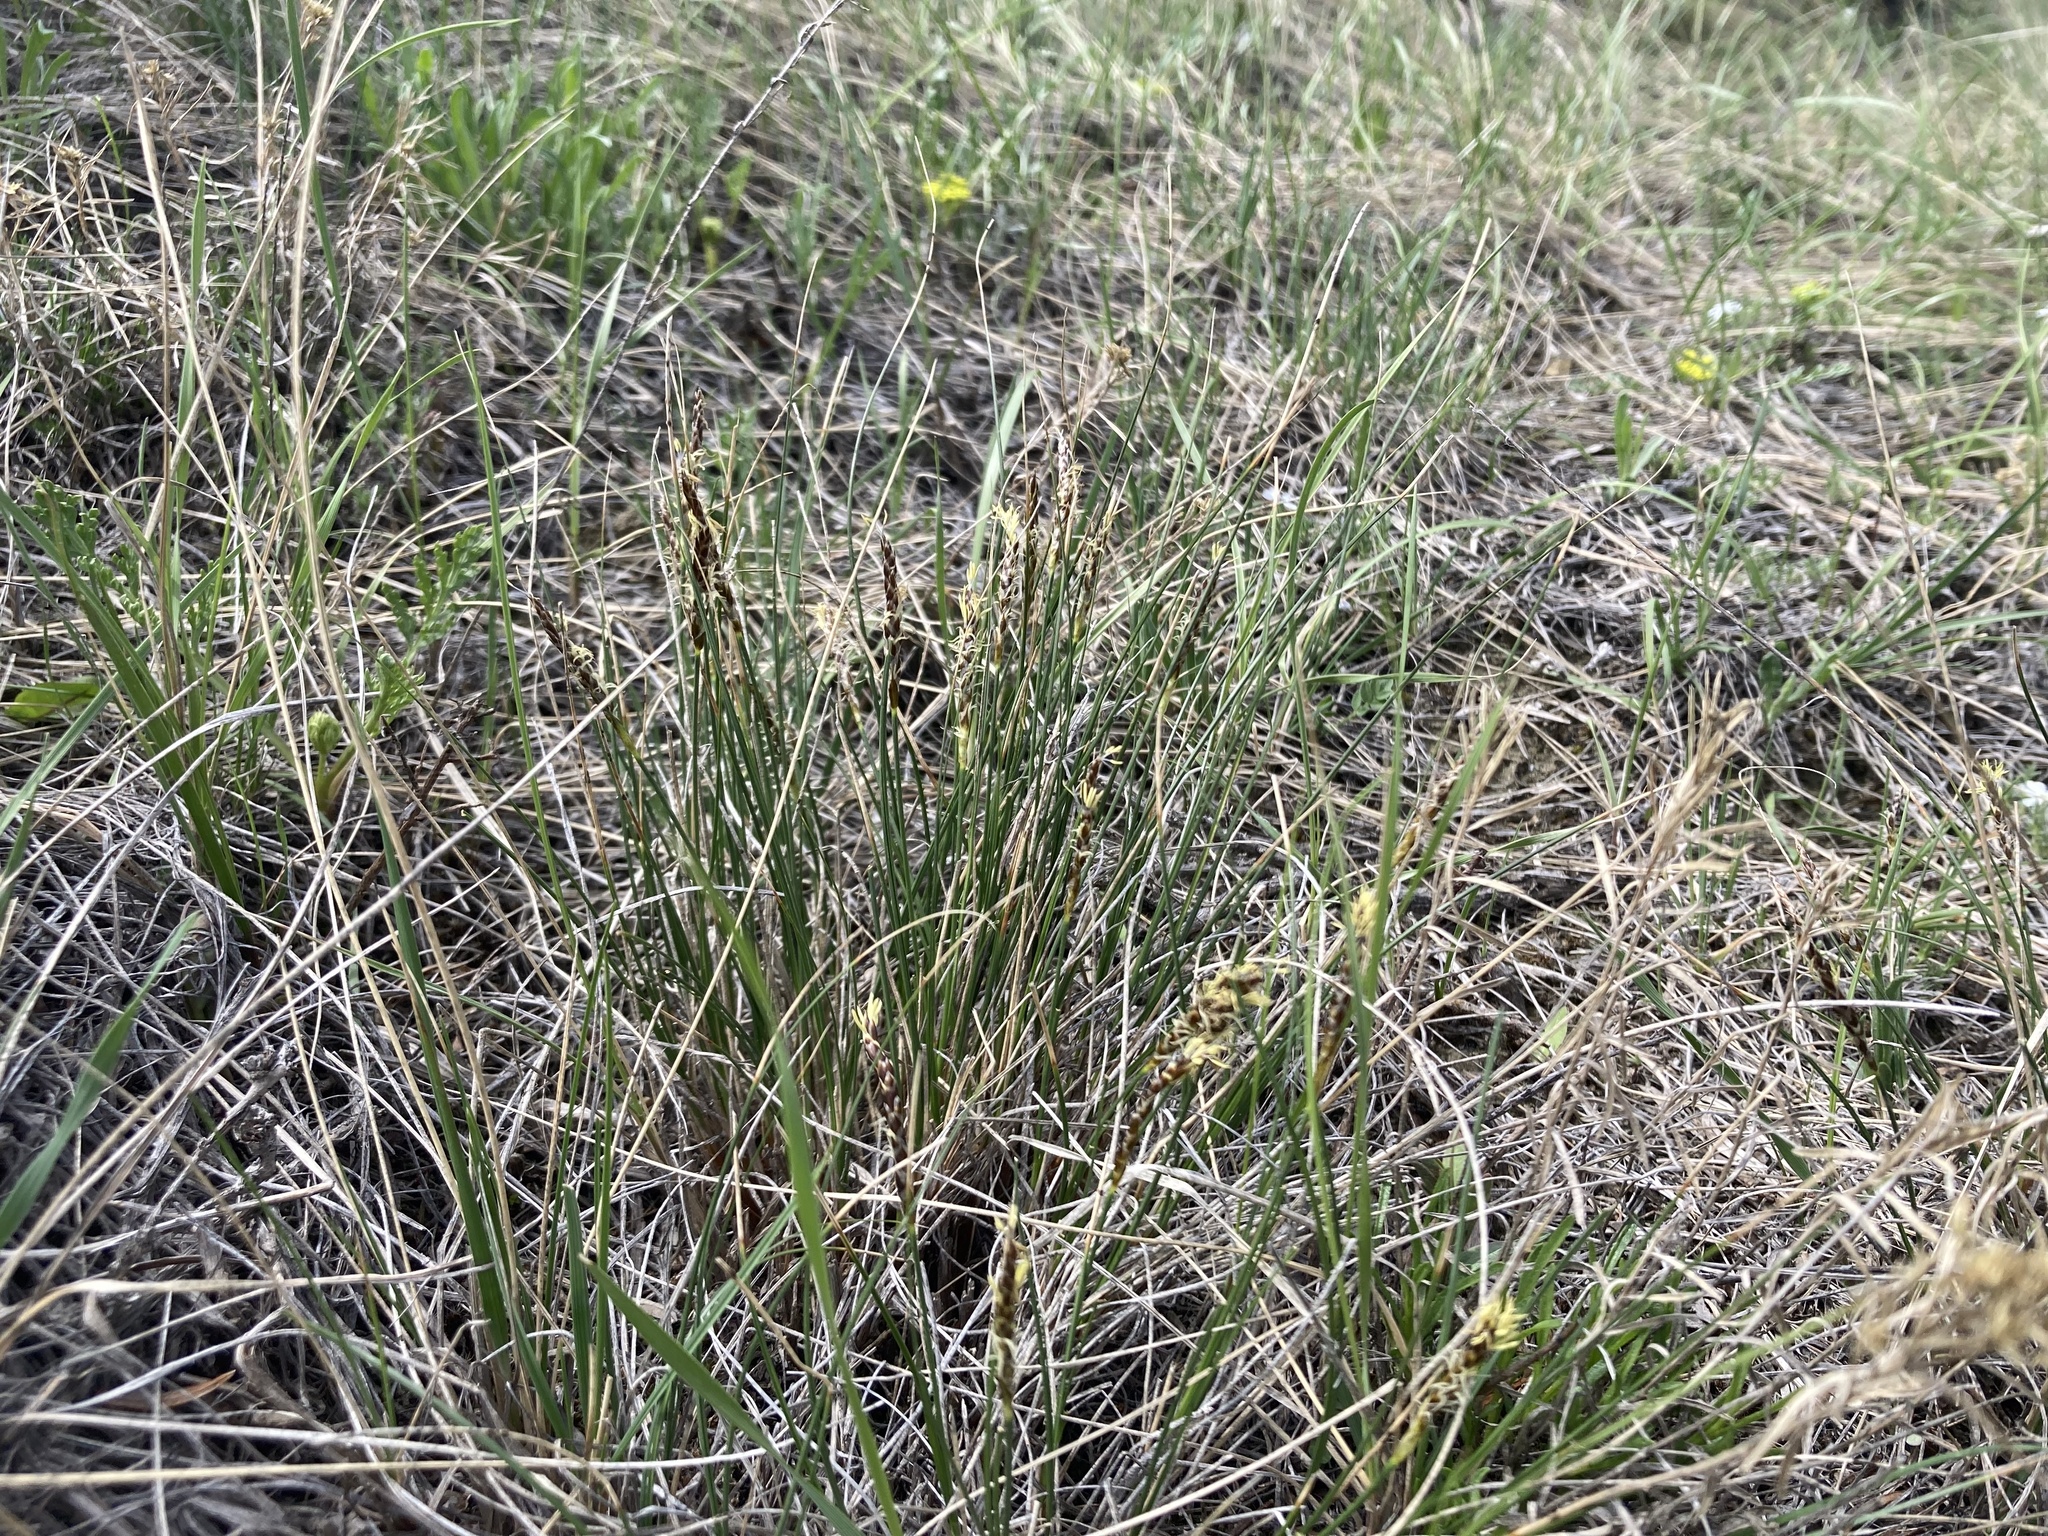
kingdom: Plantae
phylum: Tracheophyta
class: Liliopsida
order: Poales
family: Cyperaceae
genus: Carex
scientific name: Carex filifolia
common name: Threadleaf sedge
